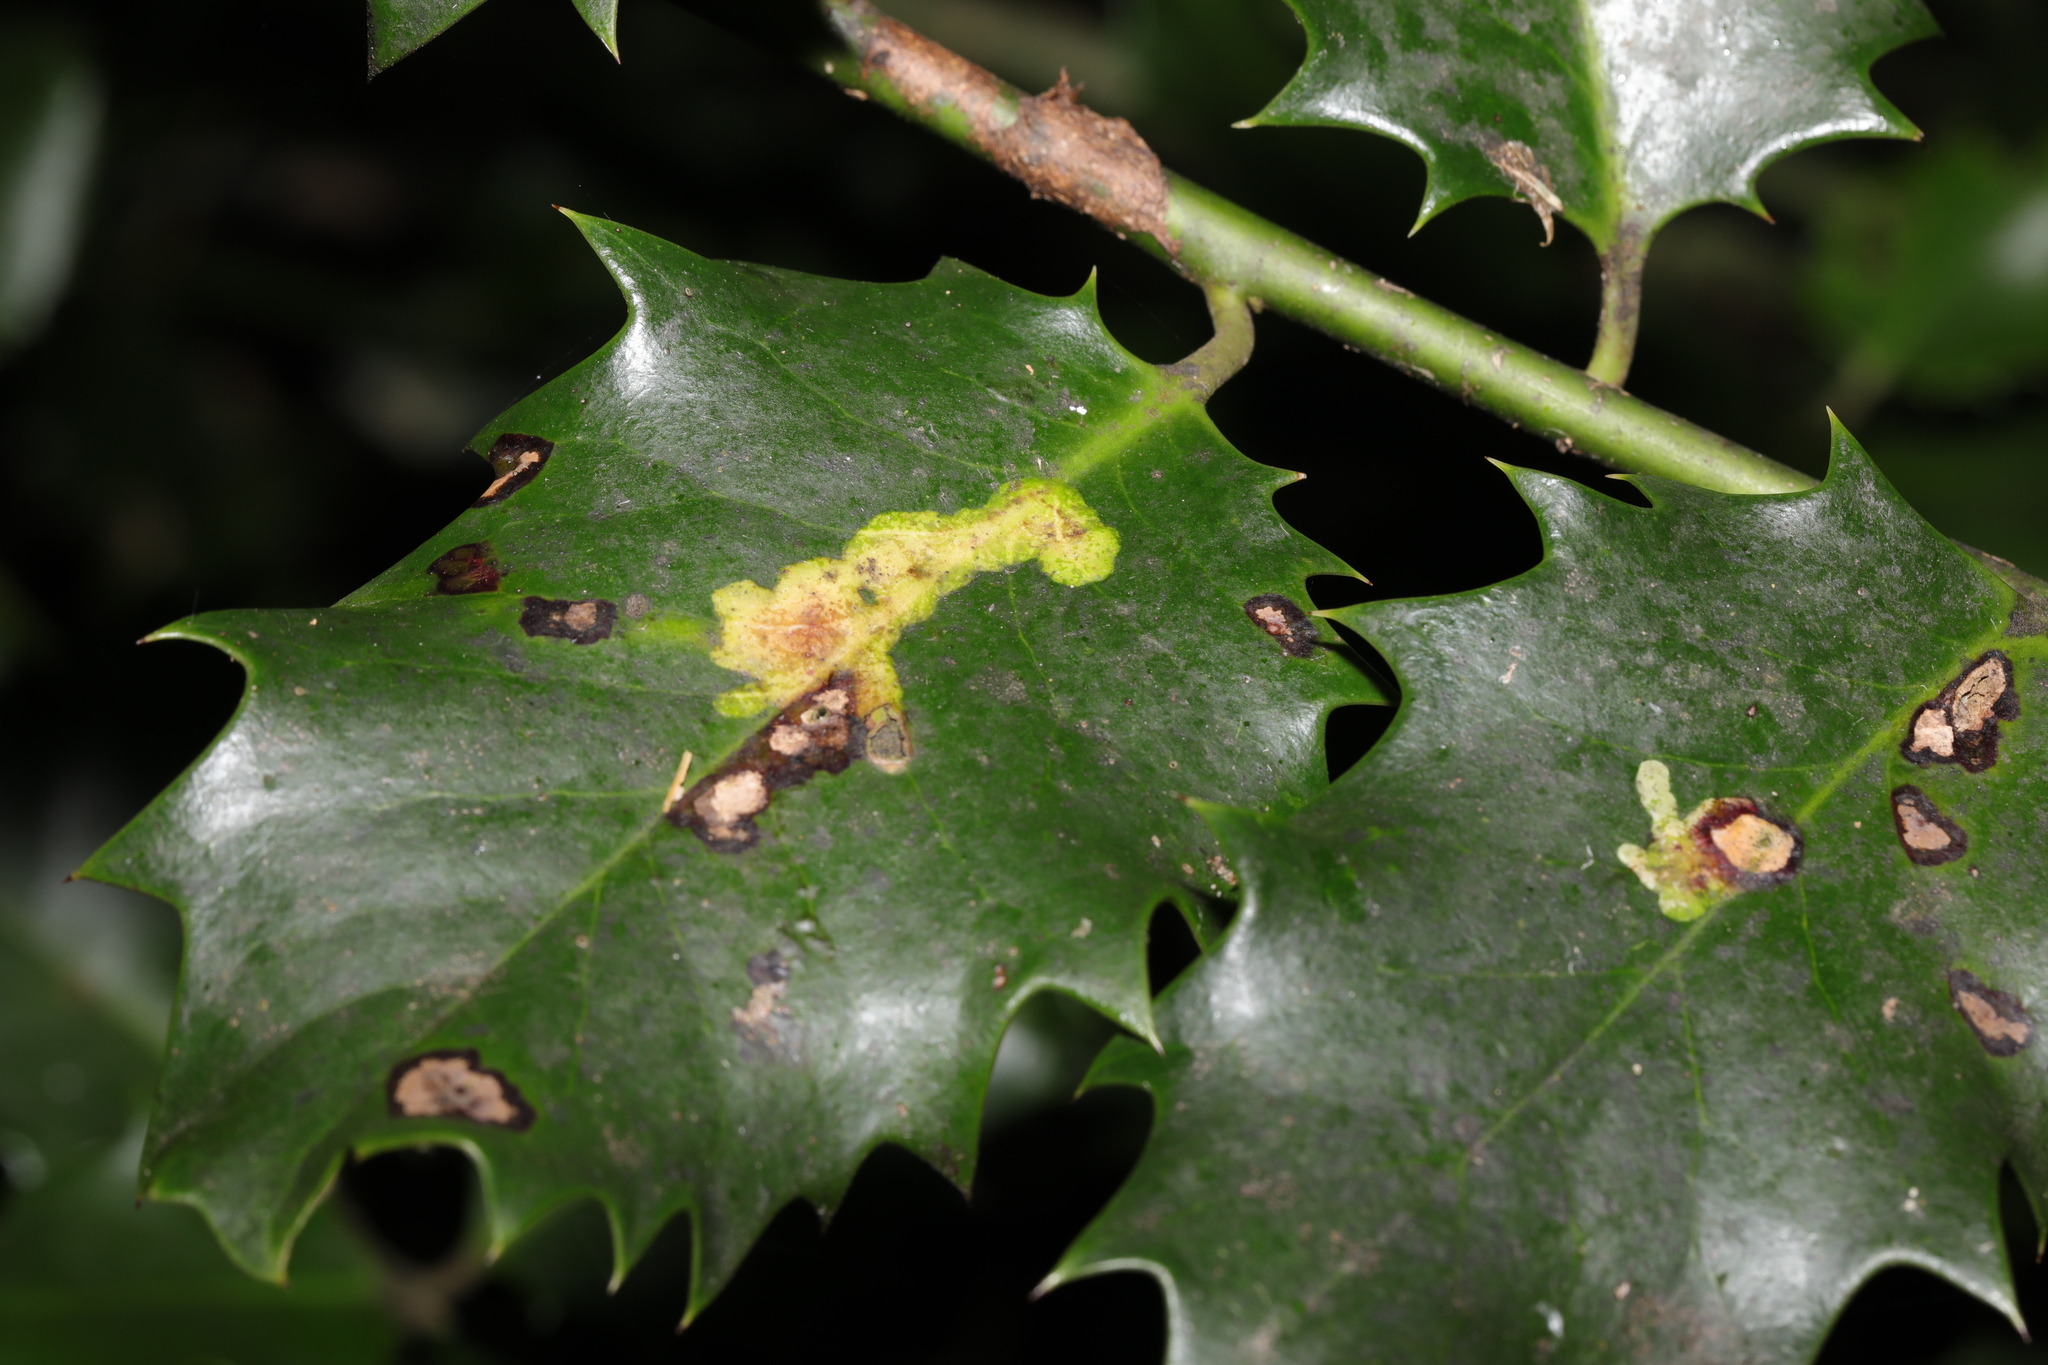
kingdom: Animalia
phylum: Arthropoda
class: Insecta
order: Diptera
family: Agromyzidae
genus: Phytomyza
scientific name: Phytomyza ilicis
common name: Holly leafminer
